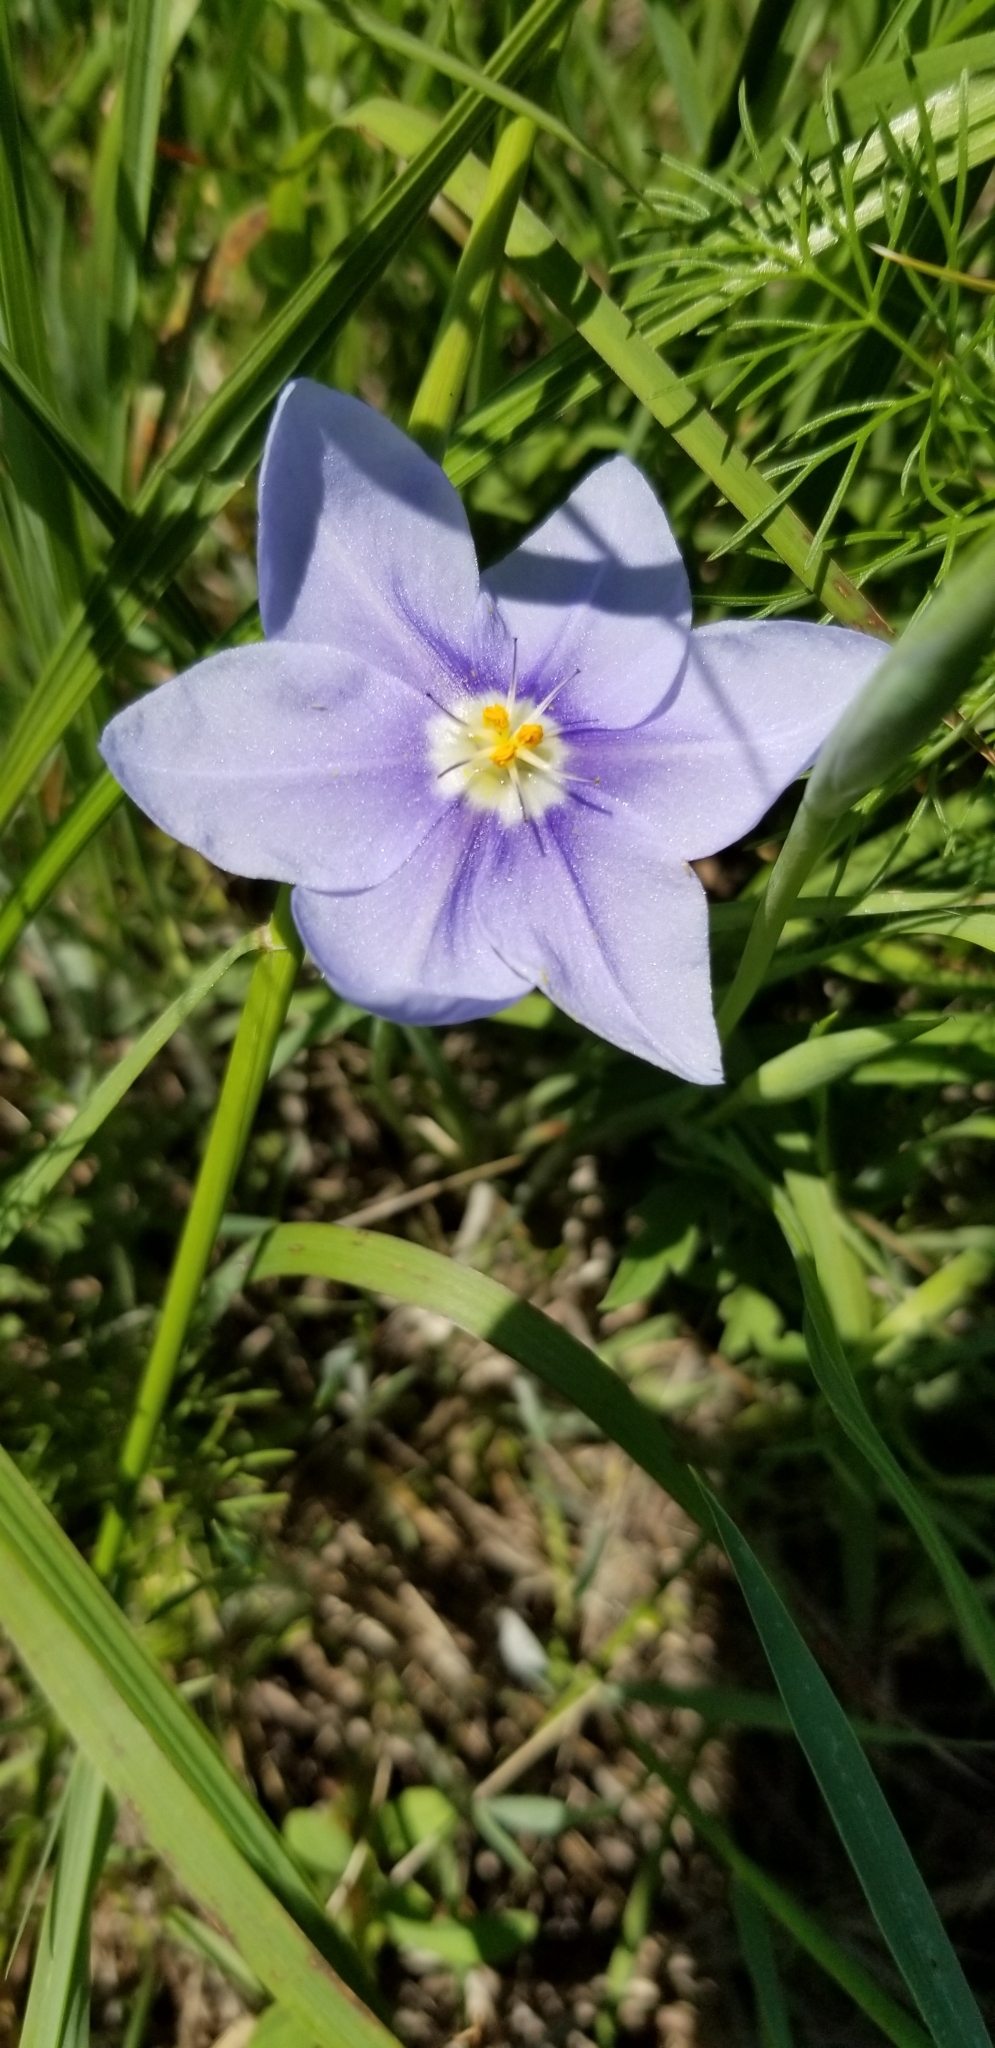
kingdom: Plantae
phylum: Tracheophyta
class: Liliopsida
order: Asparagales
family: Iridaceae
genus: Nemastylis
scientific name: Nemastylis geminiflora
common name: Prairie celestial
